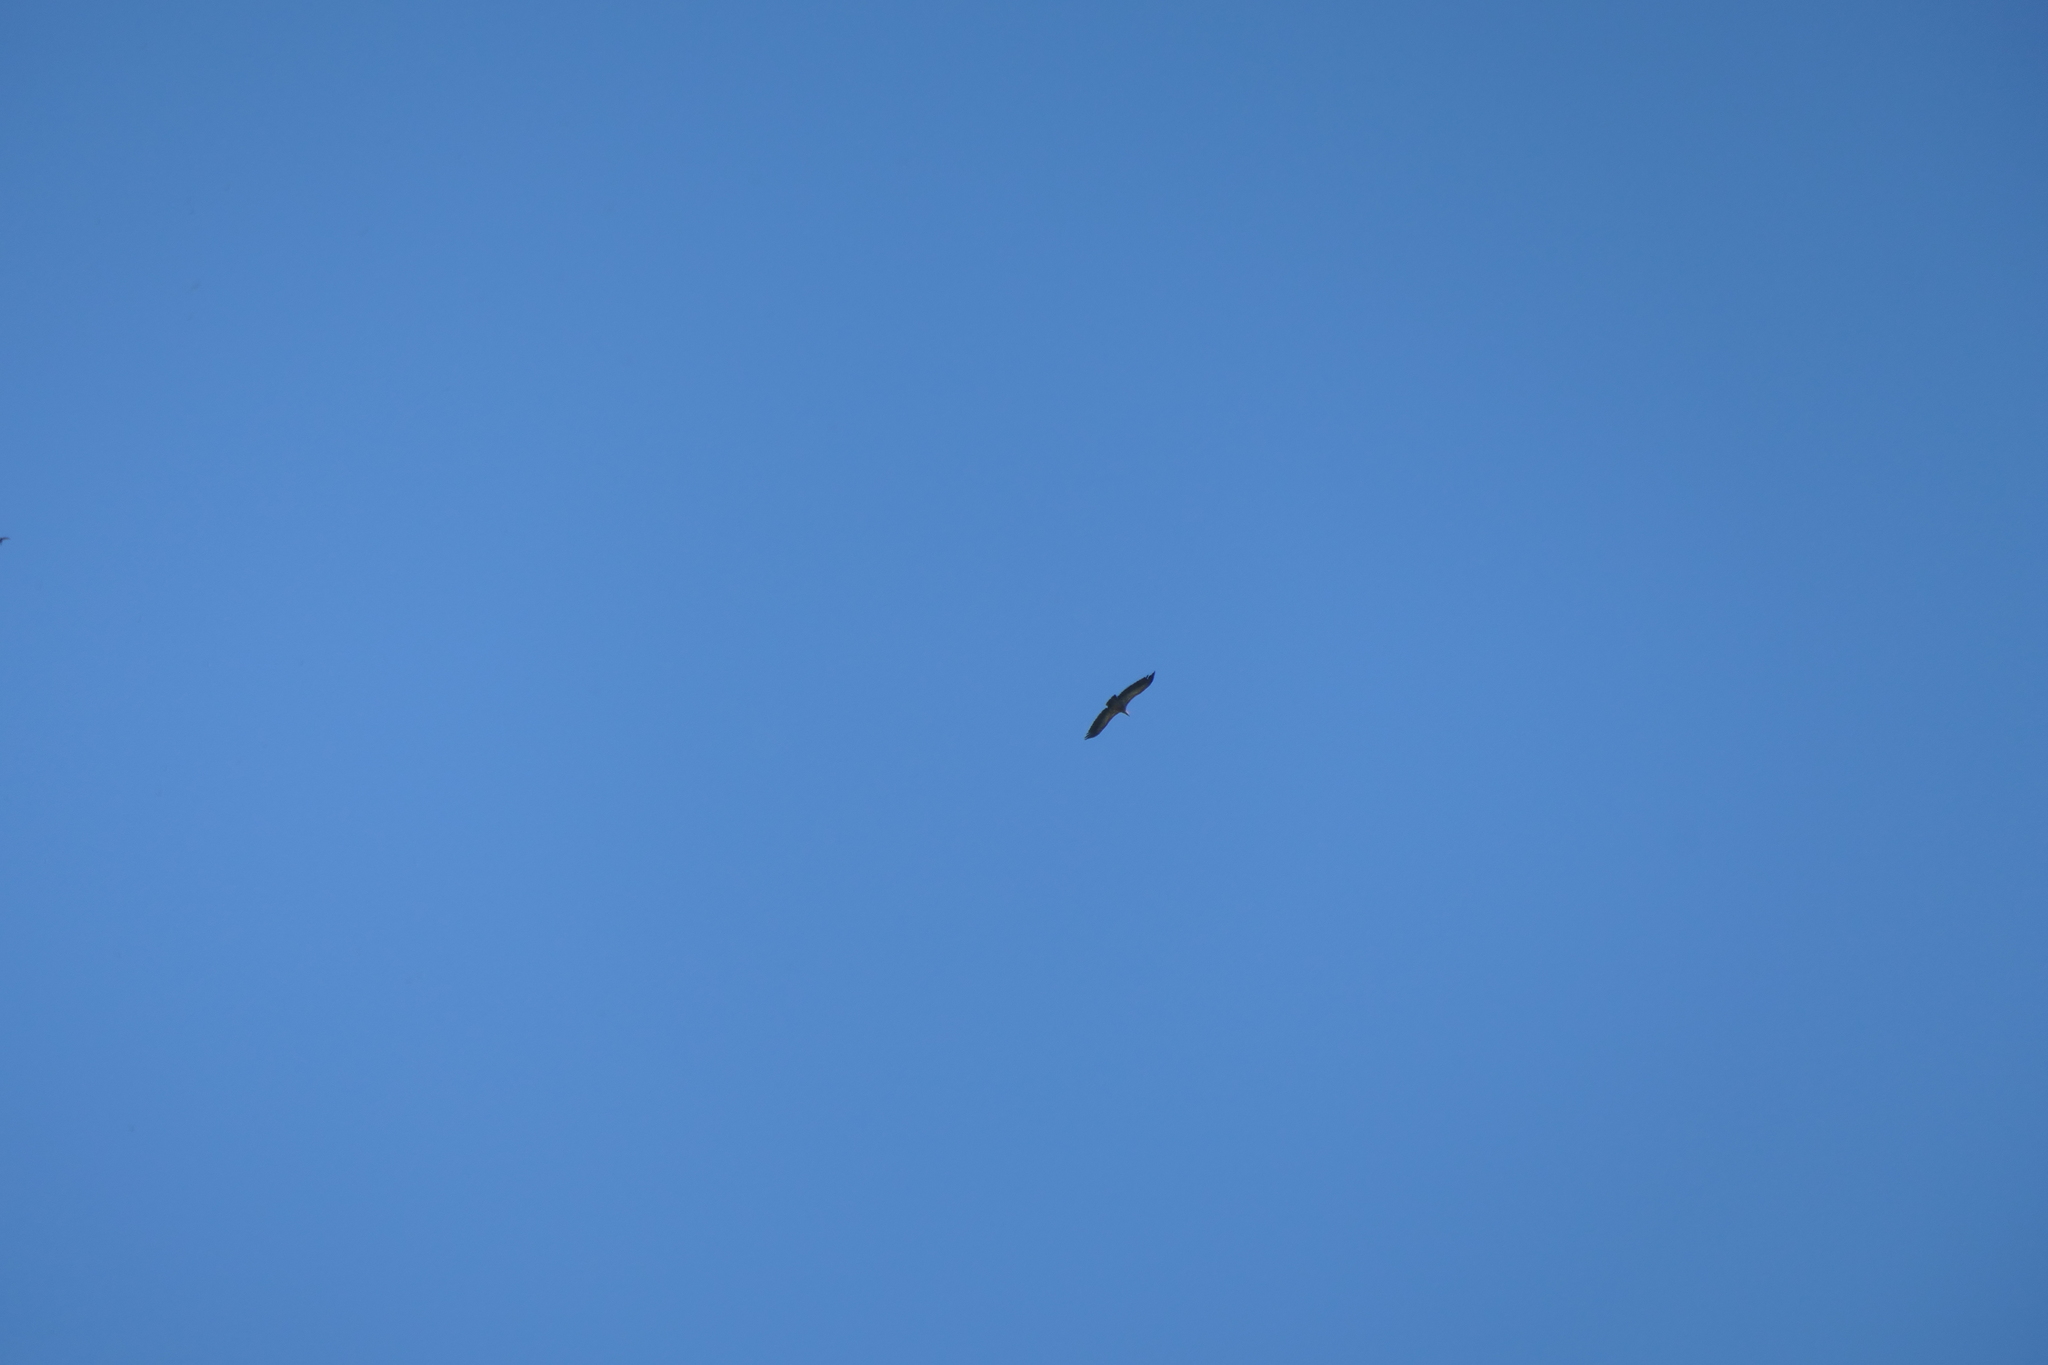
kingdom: Animalia
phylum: Chordata
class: Aves
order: Accipitriformes
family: Accipitridae
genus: Gyps
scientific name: Gyps fulvus
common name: Griffon vulture
